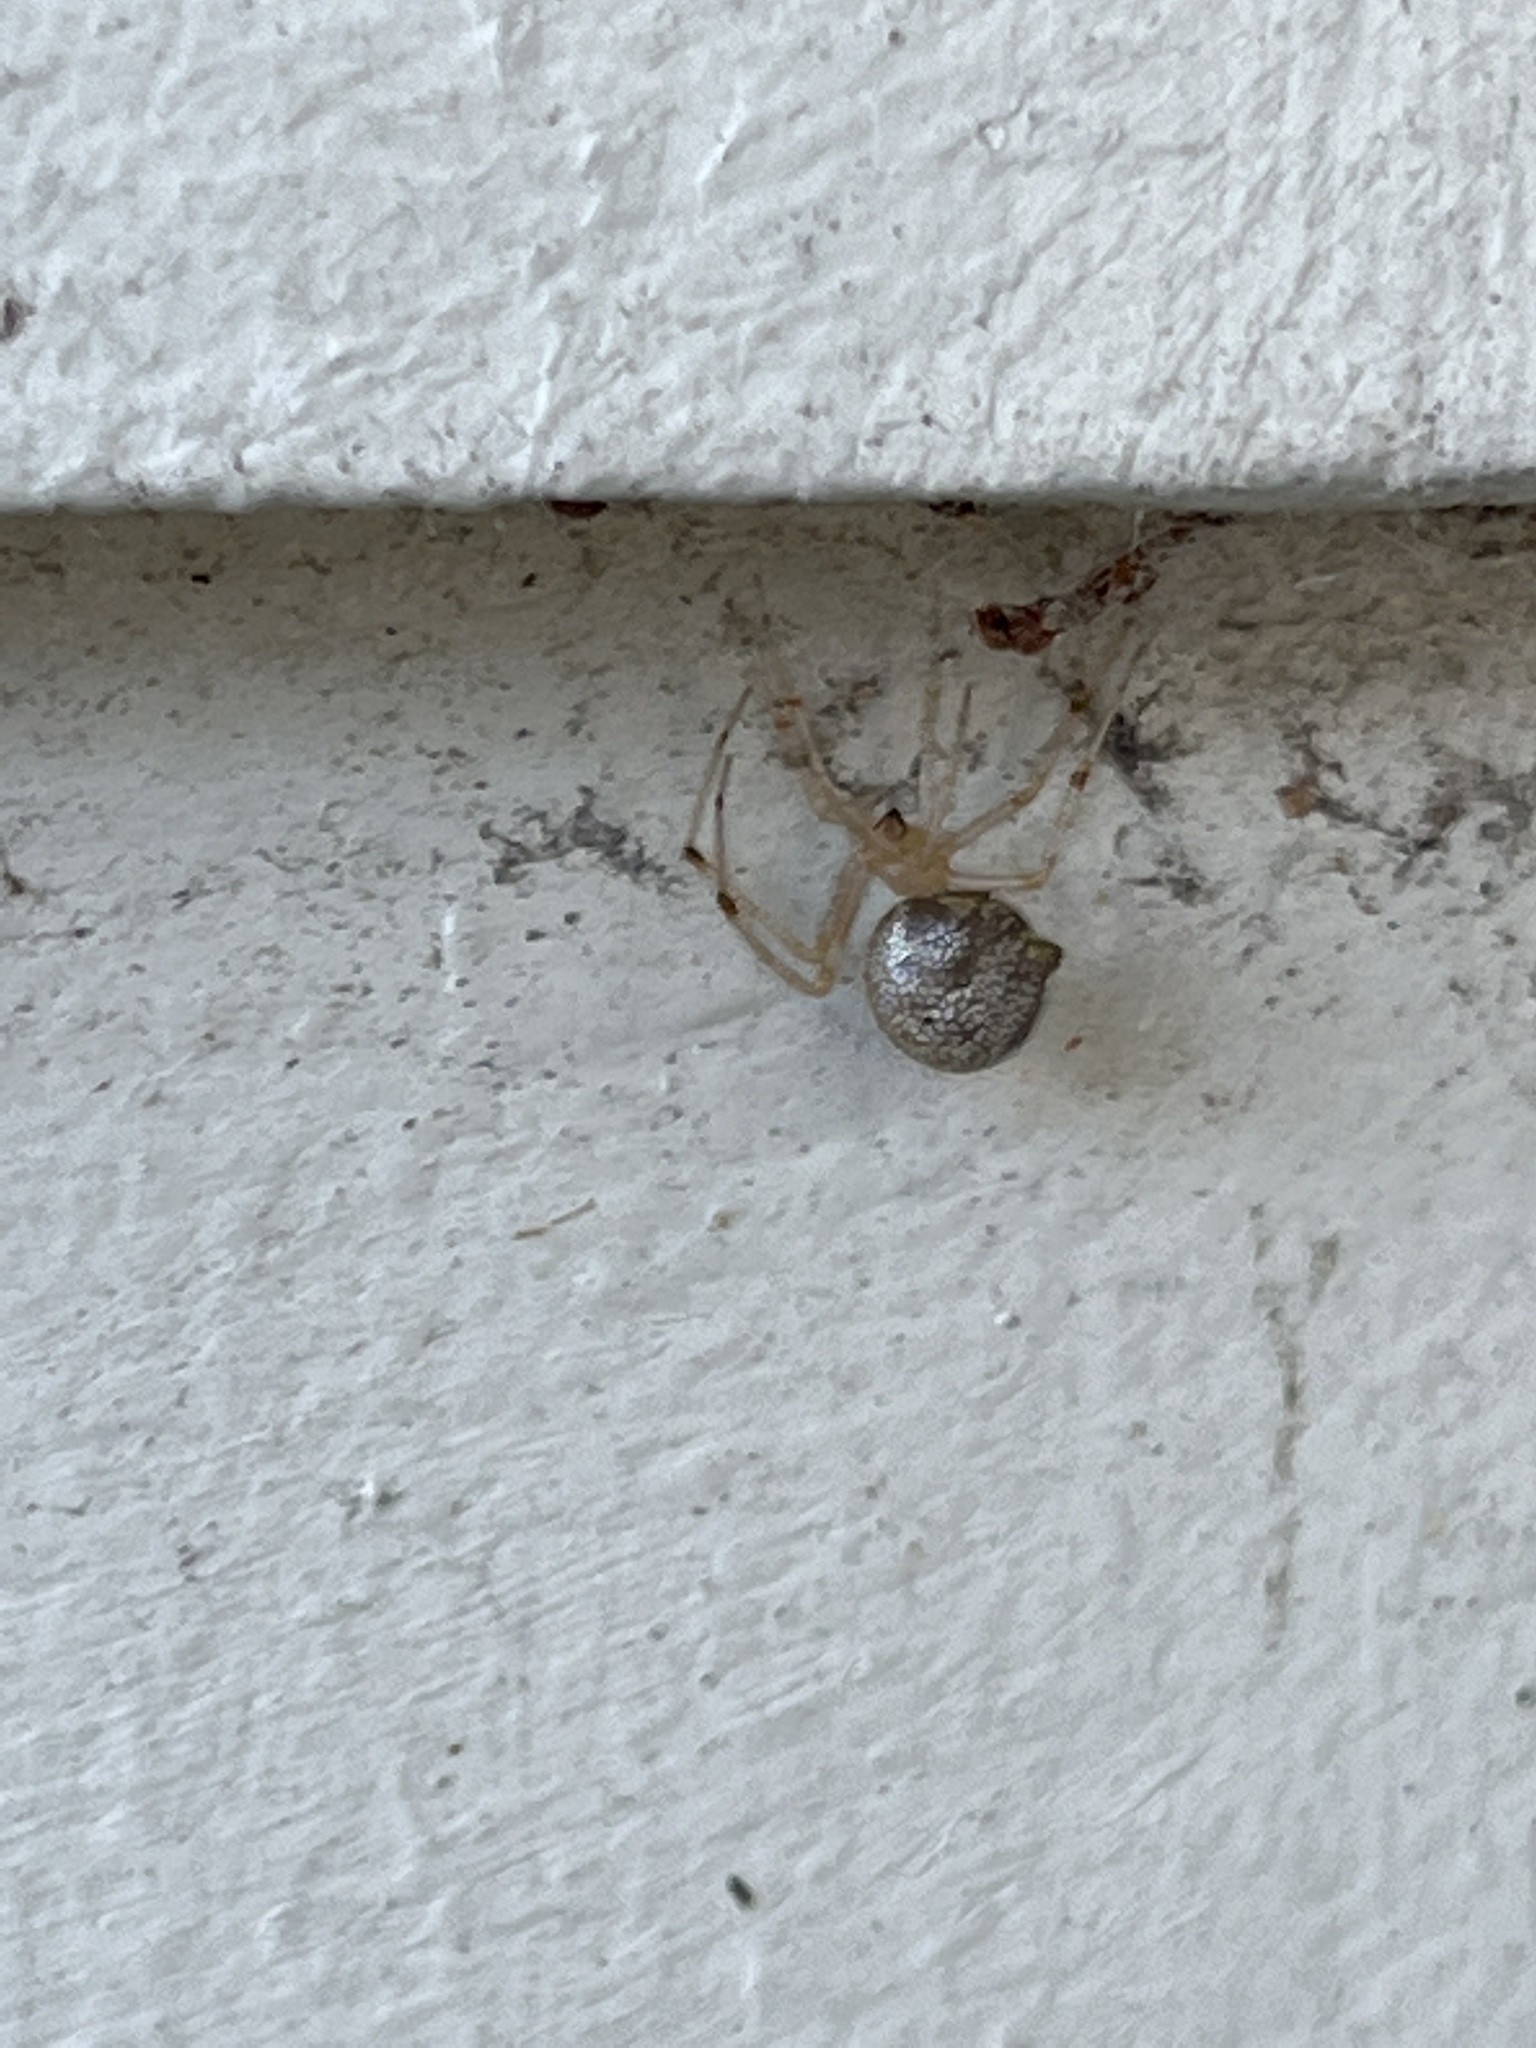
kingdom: Animalia
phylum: Arthropoda
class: Arachnida
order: Araneae
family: Theridiidae
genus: Parasteatoda
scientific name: Parasteatoda tepidariorum
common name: Common house spider
